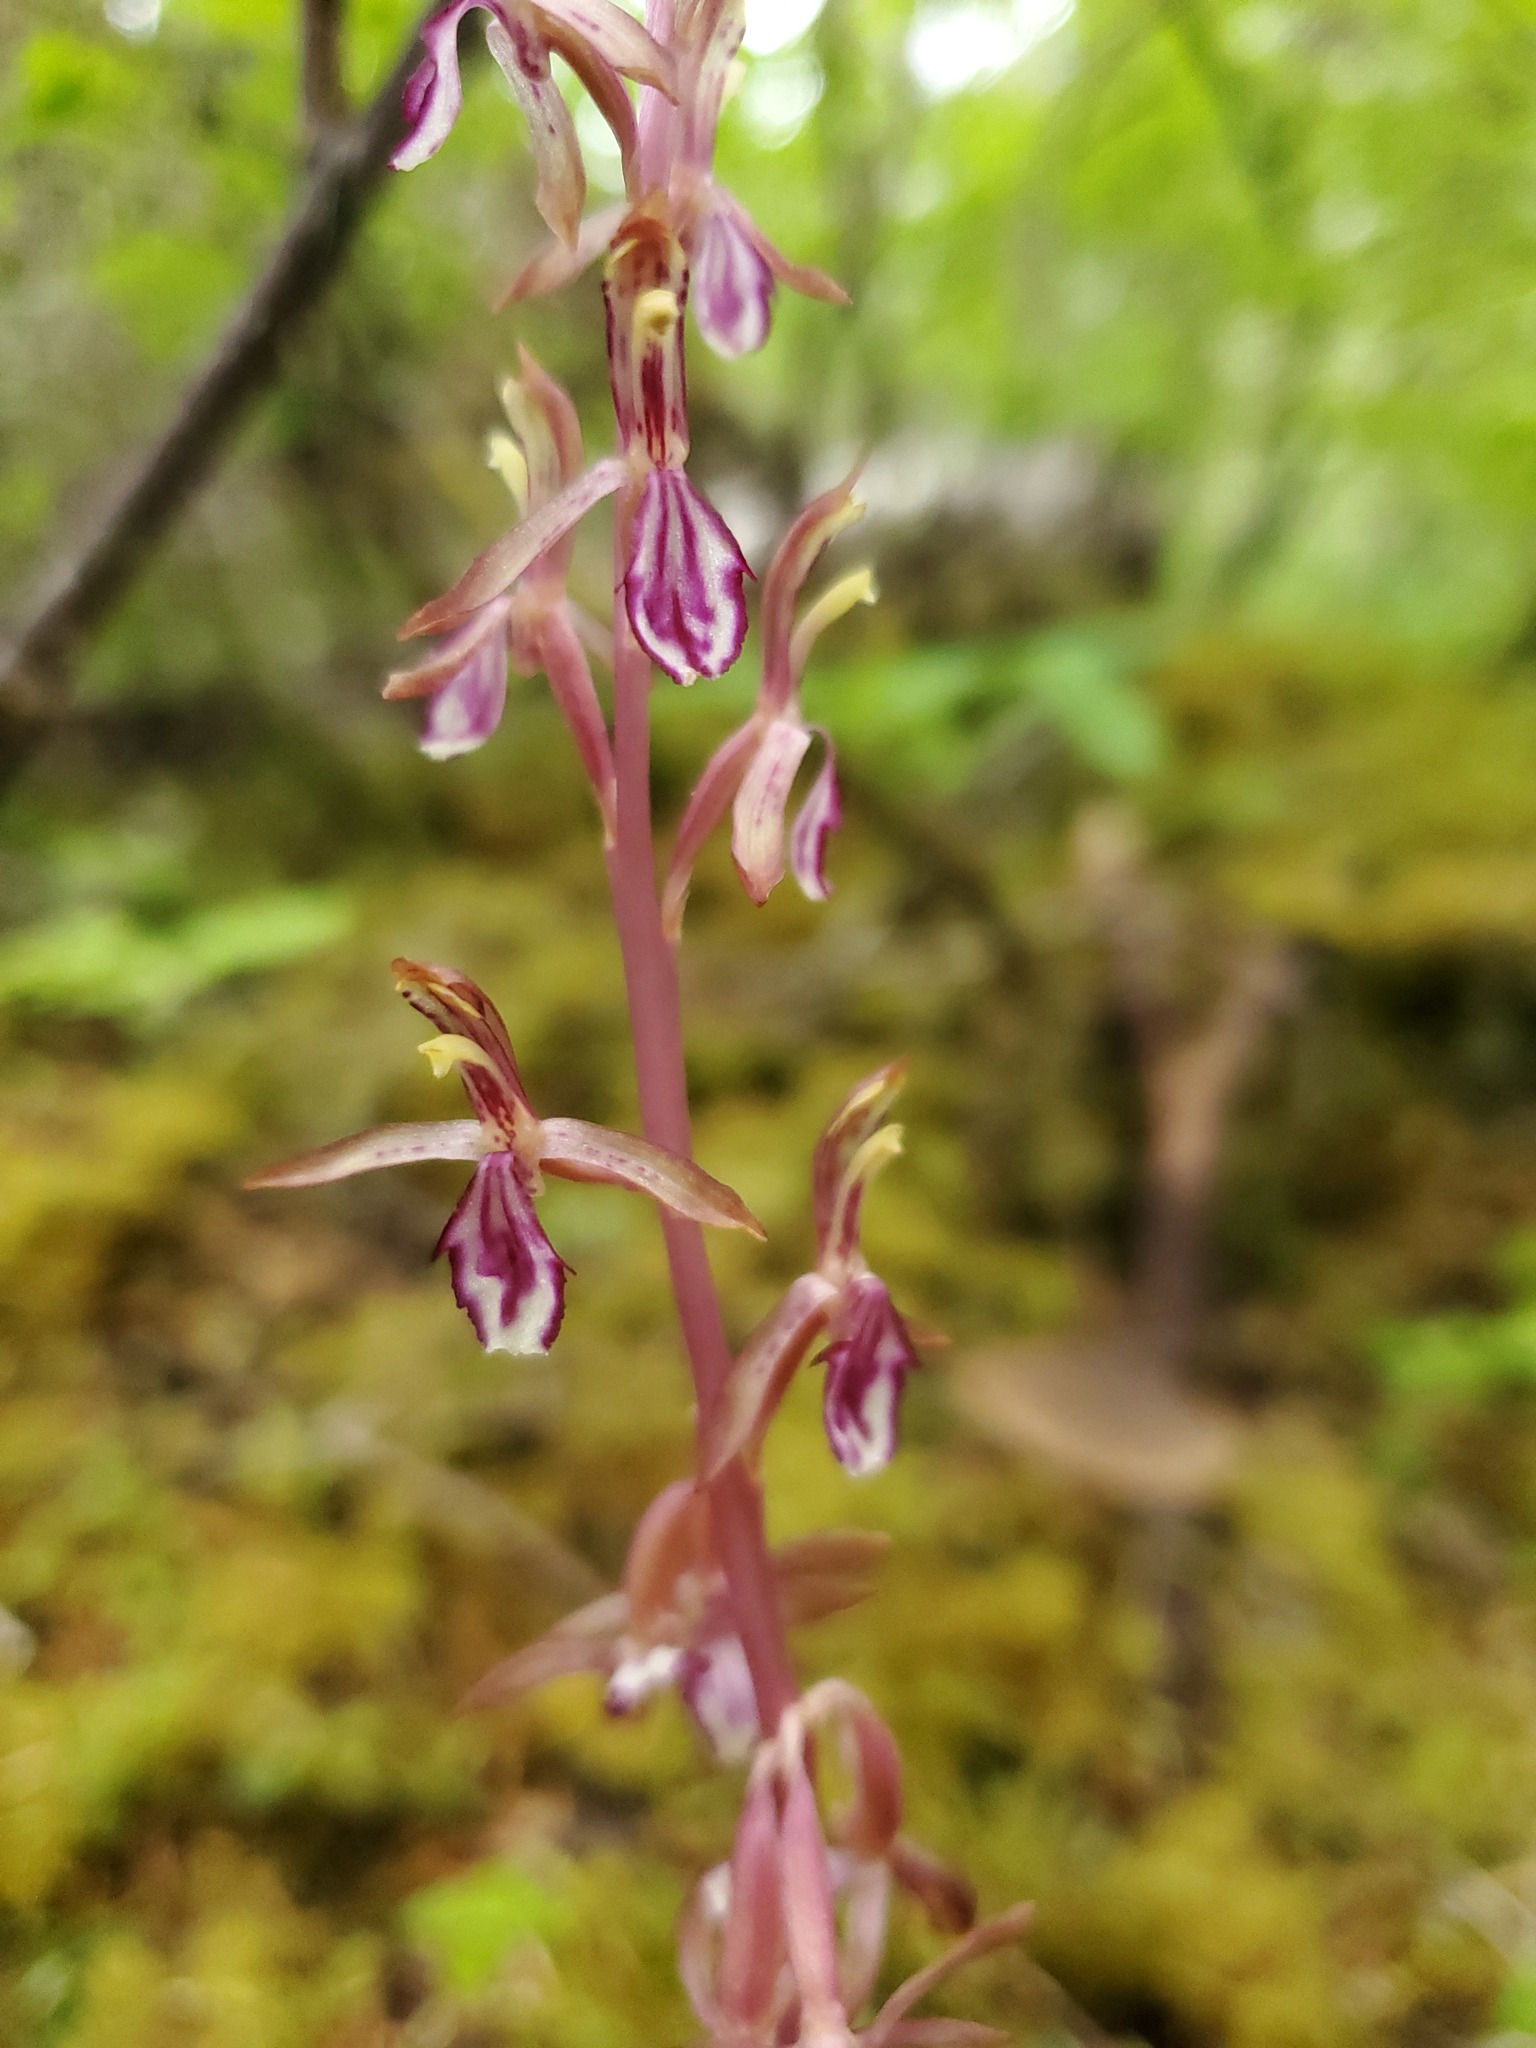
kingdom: Plantae
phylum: Tracheophyta
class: Liliopsida
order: Asparagales
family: Orchidaceae
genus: Corallorhiza
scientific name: Corallorhiza mertensiana
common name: Pacific coralroot
